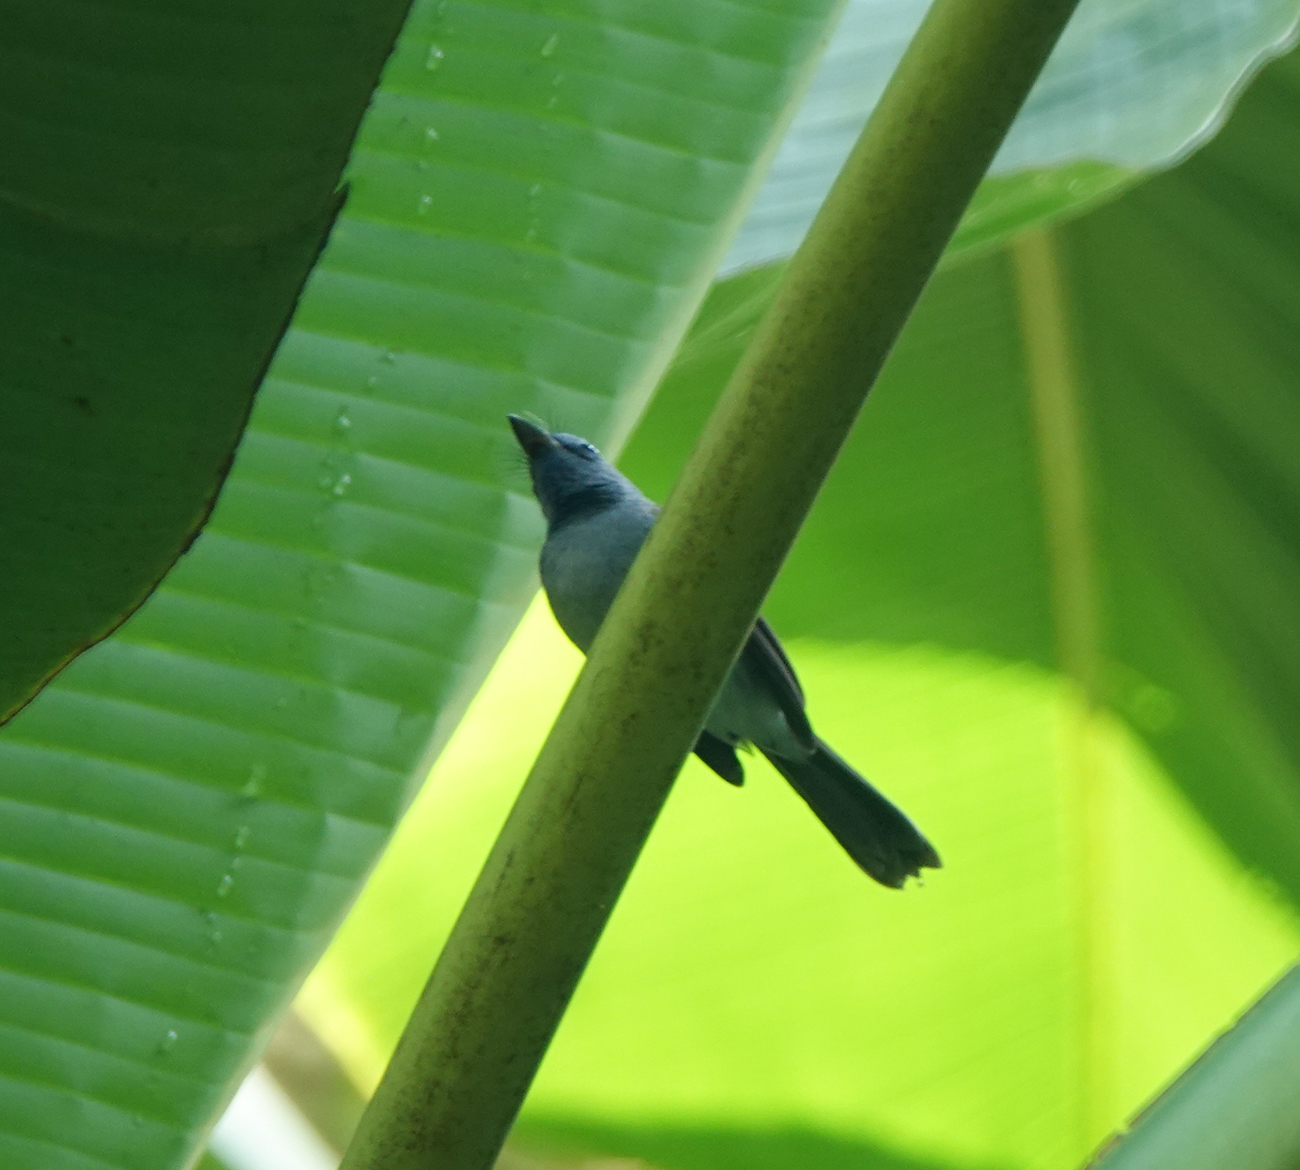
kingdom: Animalia
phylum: Chordata
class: Aves
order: Passeriformes
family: Monarchidae
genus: Hypothymis
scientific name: Hypothymis azurea
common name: Black-naped monarch
